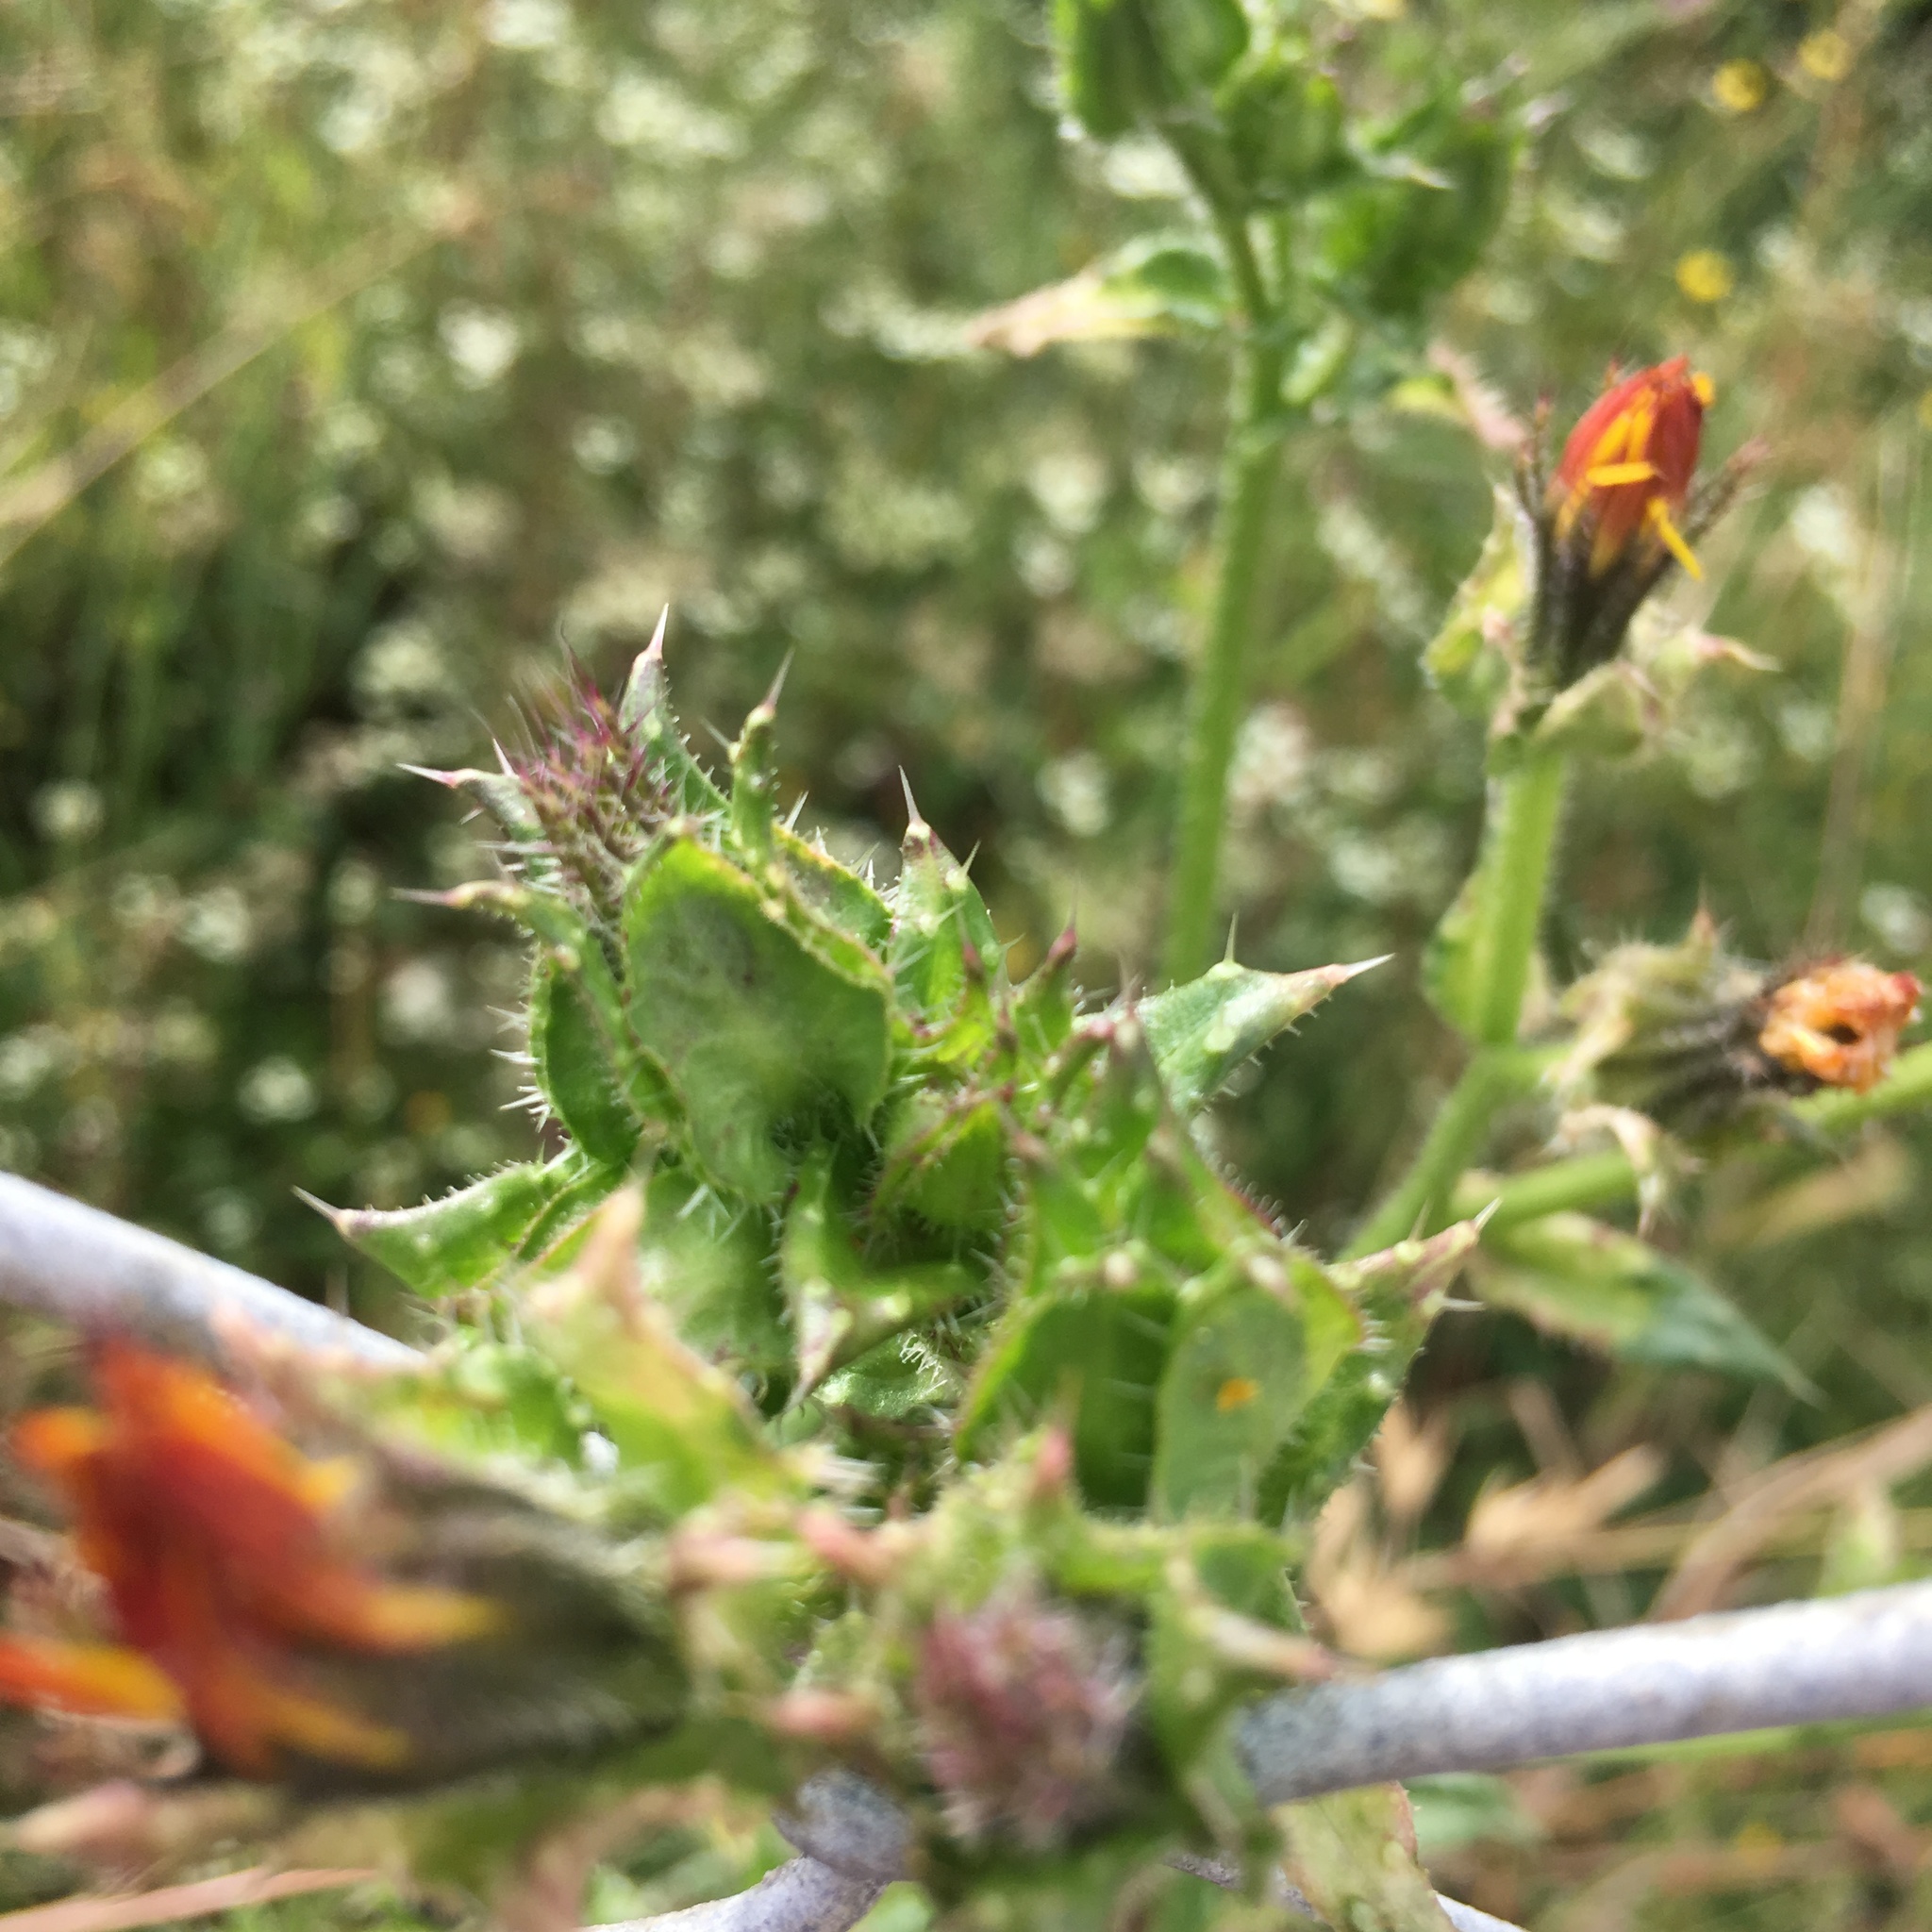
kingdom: Plantae
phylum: Tracheophyta
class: Magnoliopsida
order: Asterales
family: Asteraceae
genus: Helminthotheca
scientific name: Helminthotheca echioides
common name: Ox-tongue
